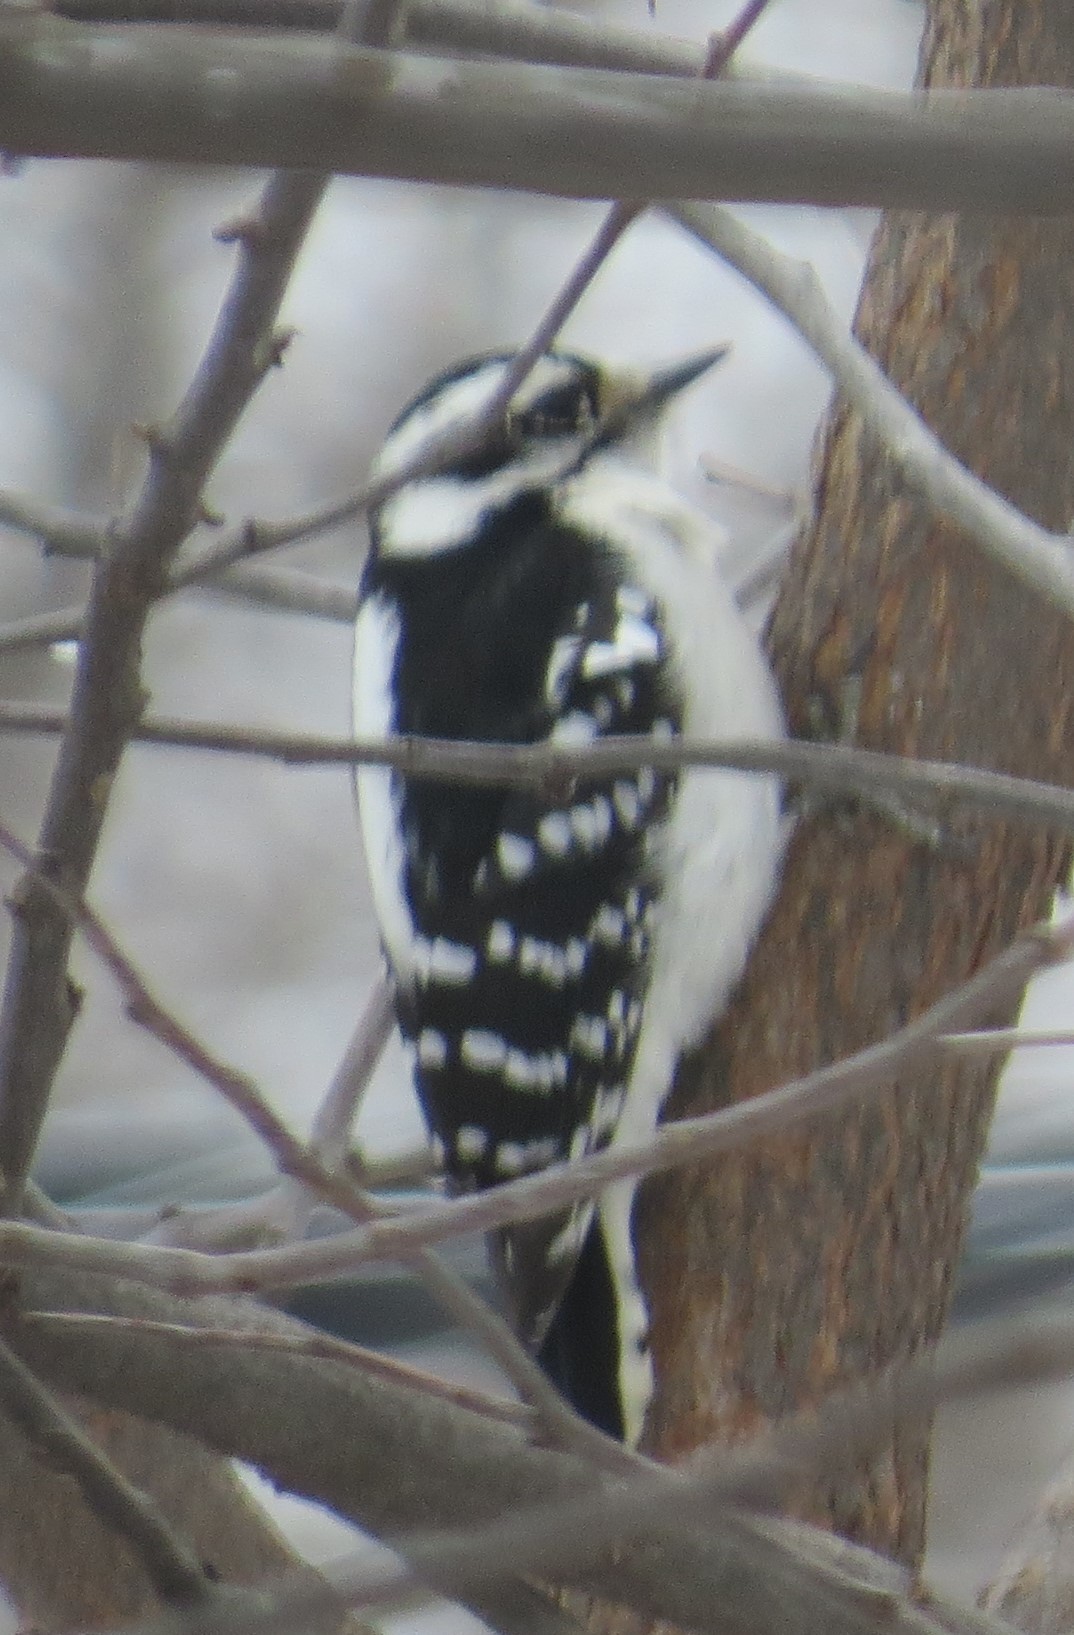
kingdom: Animalia
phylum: Chordata
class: Aves
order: Piciformes
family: Picidae
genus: Dryobates
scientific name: Dryobates pubescens
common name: Downy woodpecker
